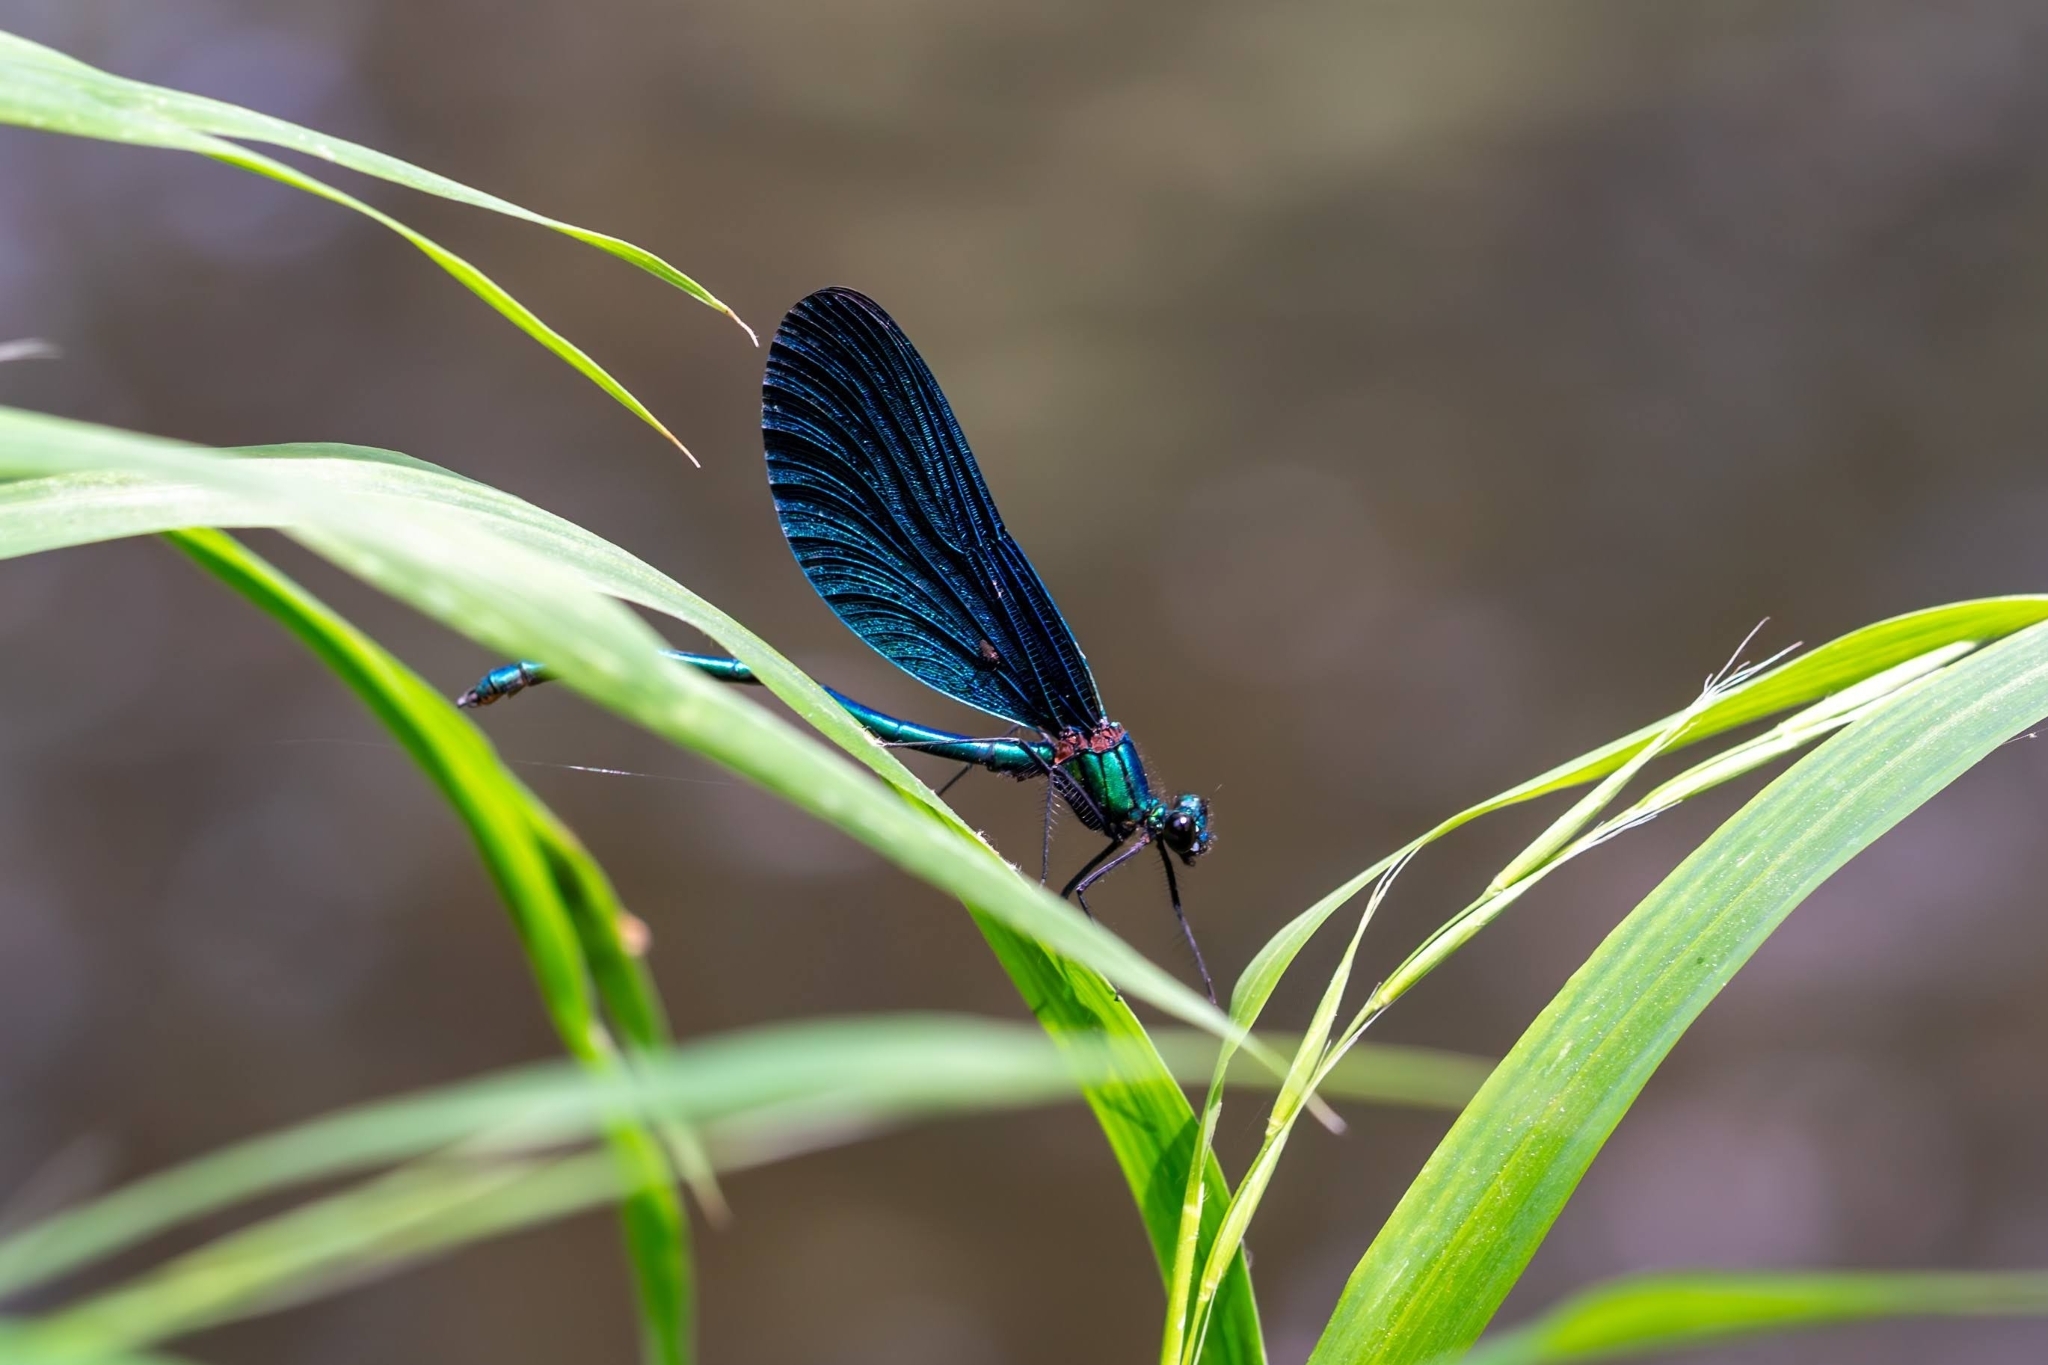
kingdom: Animalia
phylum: Arthropoda
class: Insecta
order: Odonata
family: Calopterygidae
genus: Calopteryx
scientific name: Calopteryx virgo
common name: Beautiful demoiselle
